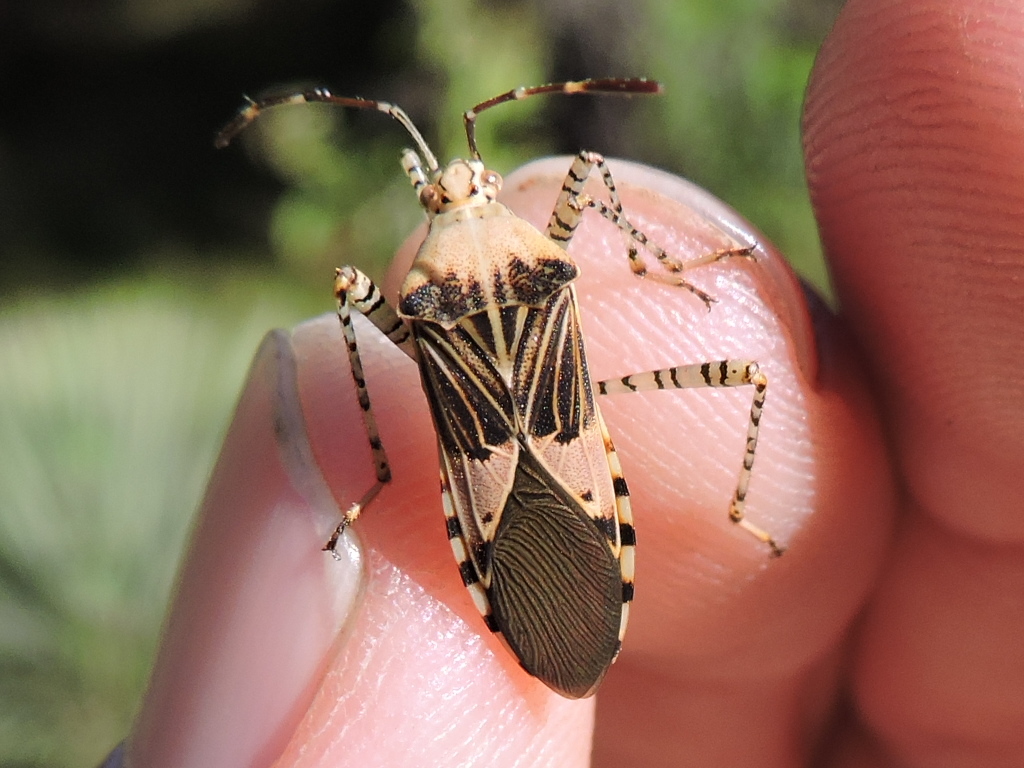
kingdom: Animalia
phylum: Arthropoda
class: Insecta
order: Hemiptera
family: Coreidae
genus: Hypselonotus
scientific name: Hypselonotus punctiventris
